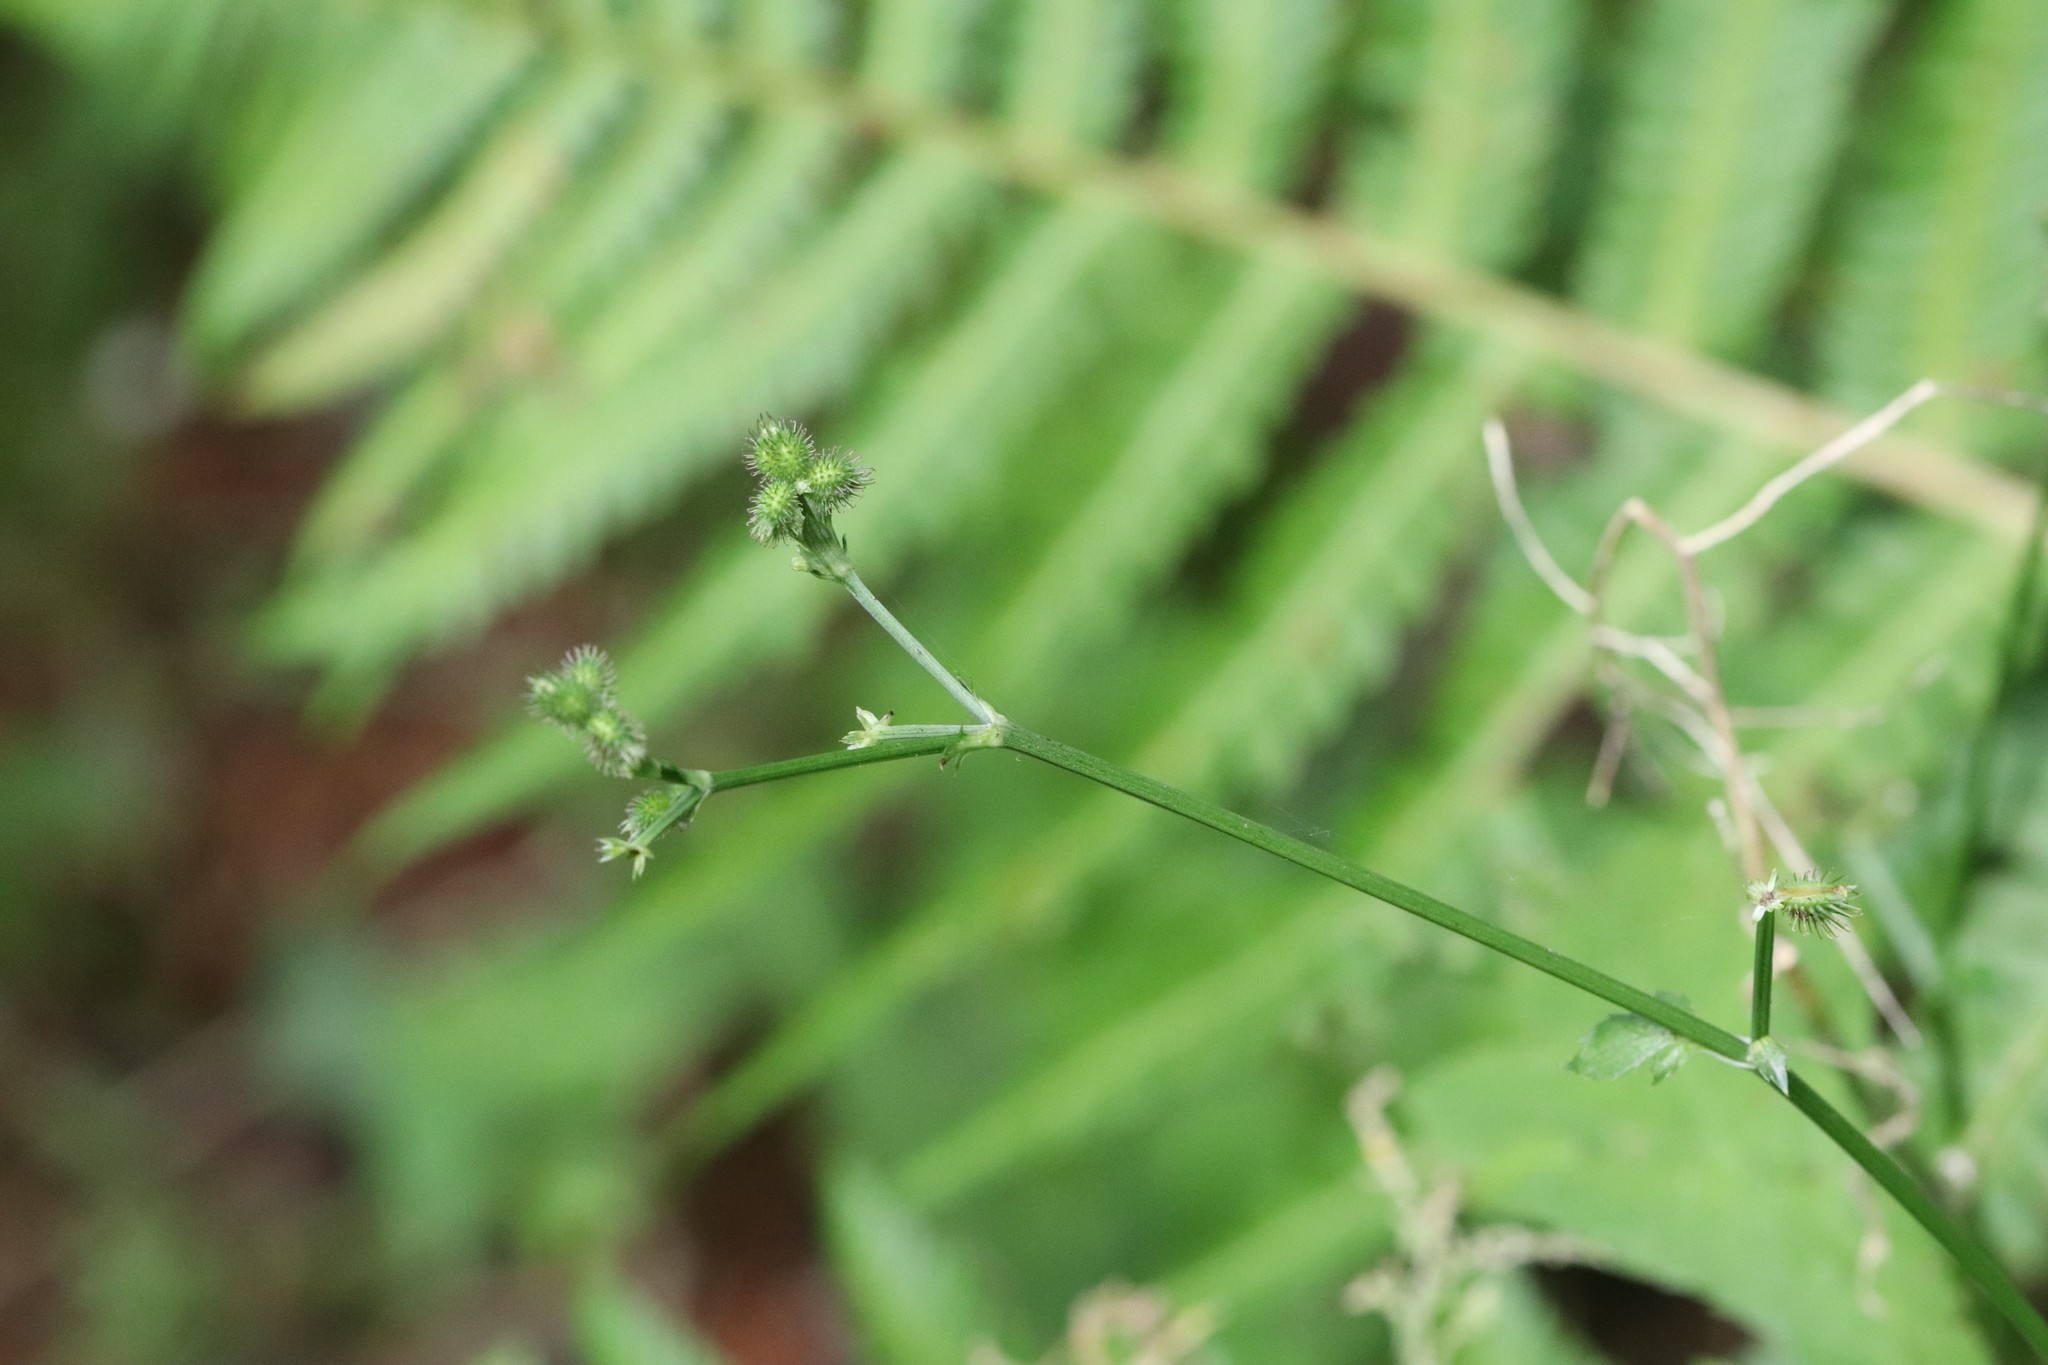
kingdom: Plantae
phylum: Tracheophyta
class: Magnoliopsida
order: Apiales
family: Apiaceae
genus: Sanicula
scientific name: Sanicula chinensis
